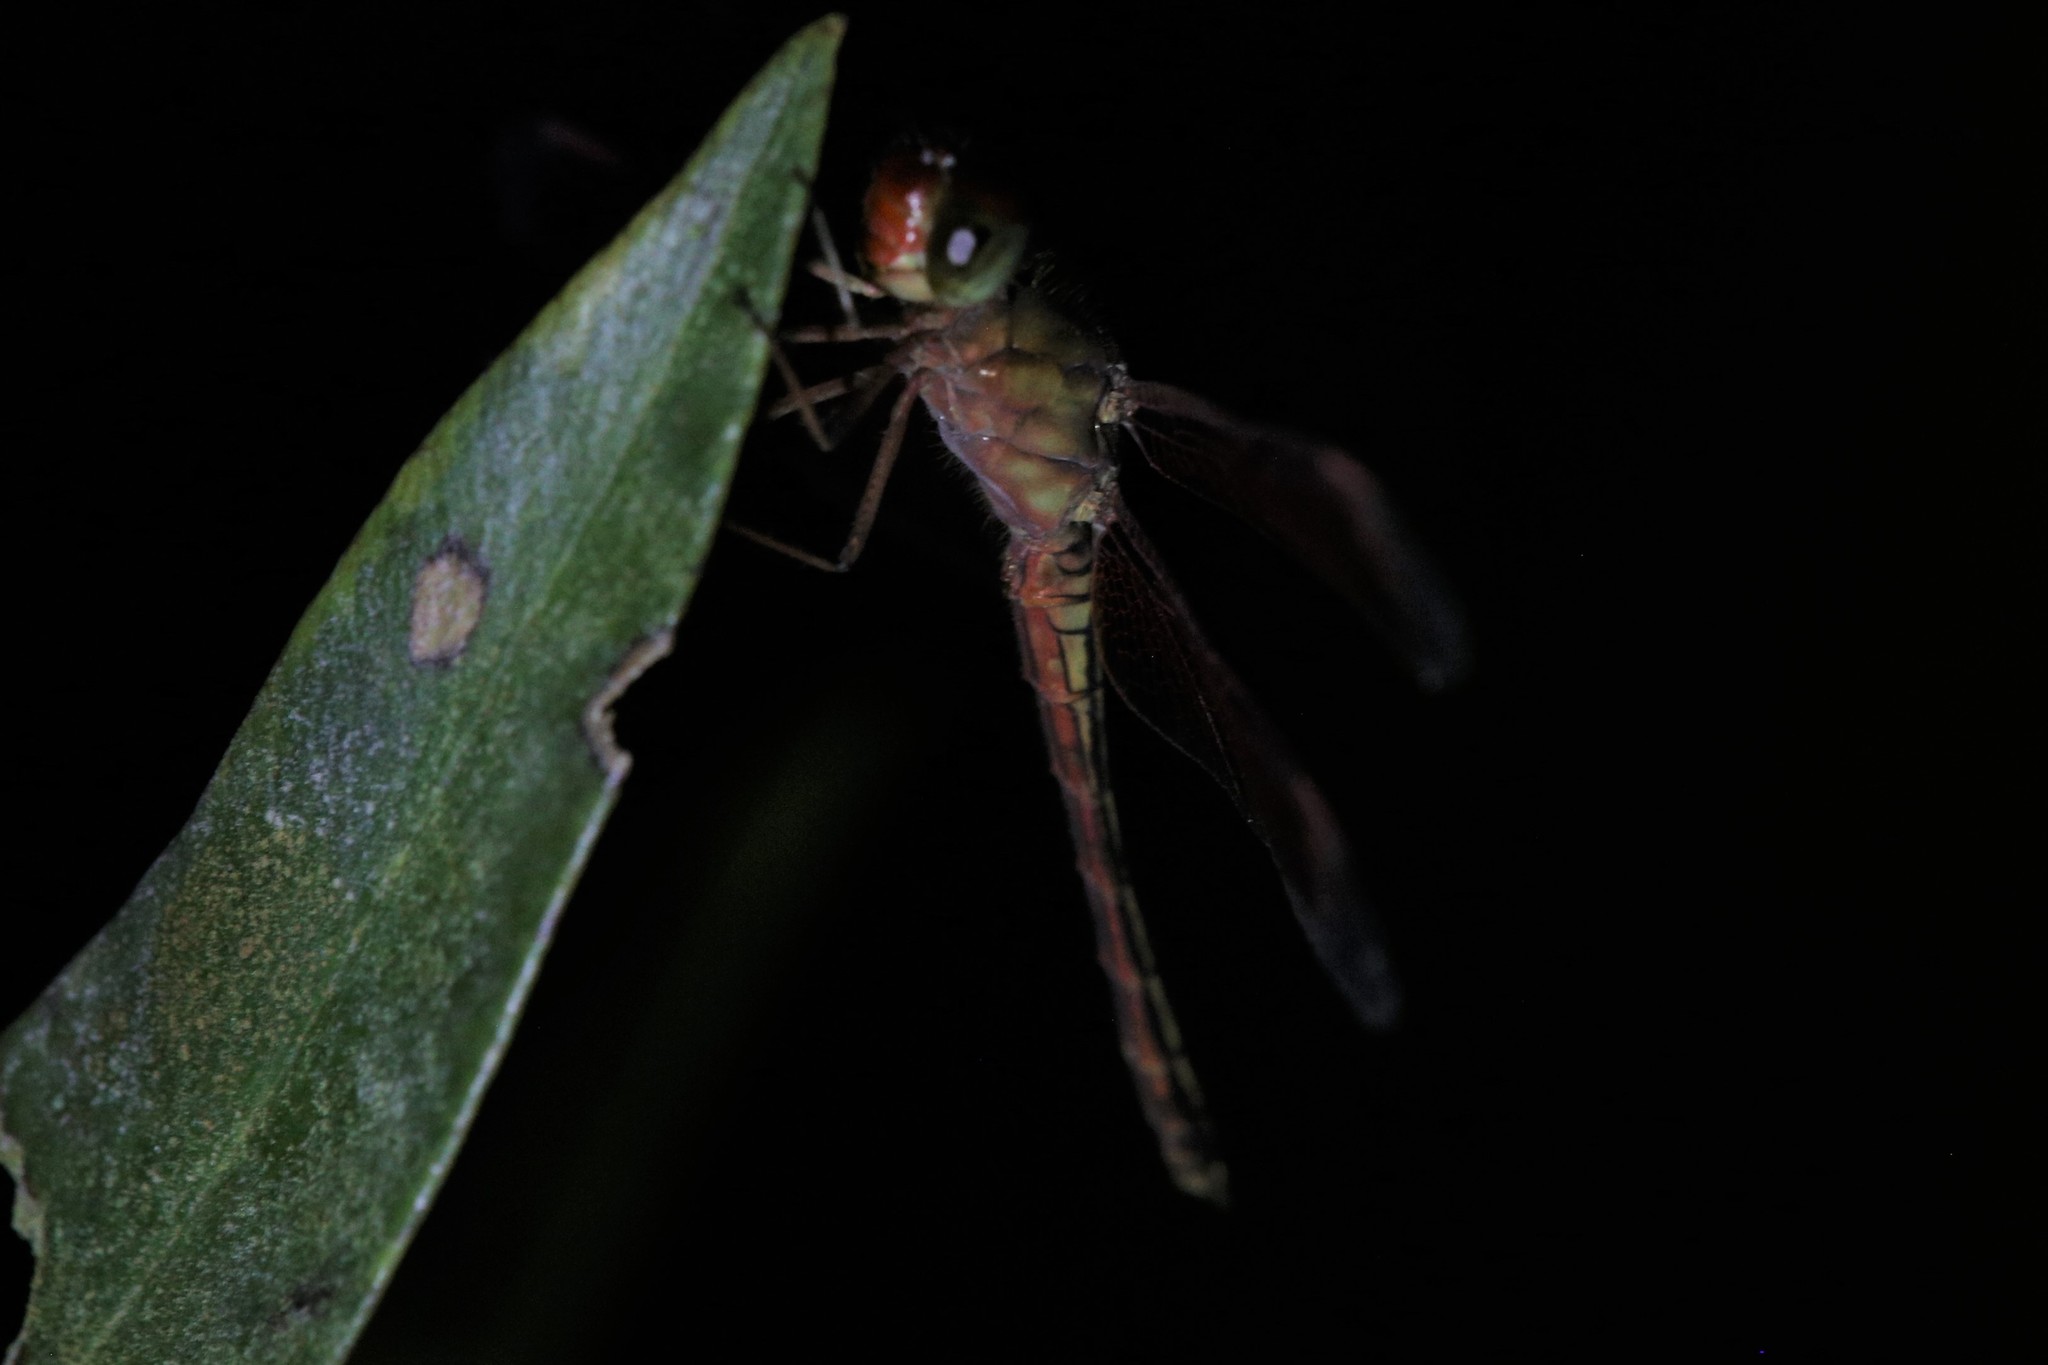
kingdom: Animalia
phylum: Arthropoda
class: Insecta
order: Odonata
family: Libellulidae
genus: Neurothemis
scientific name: Neurothemis stigmatizans
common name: Painted grasshawk
